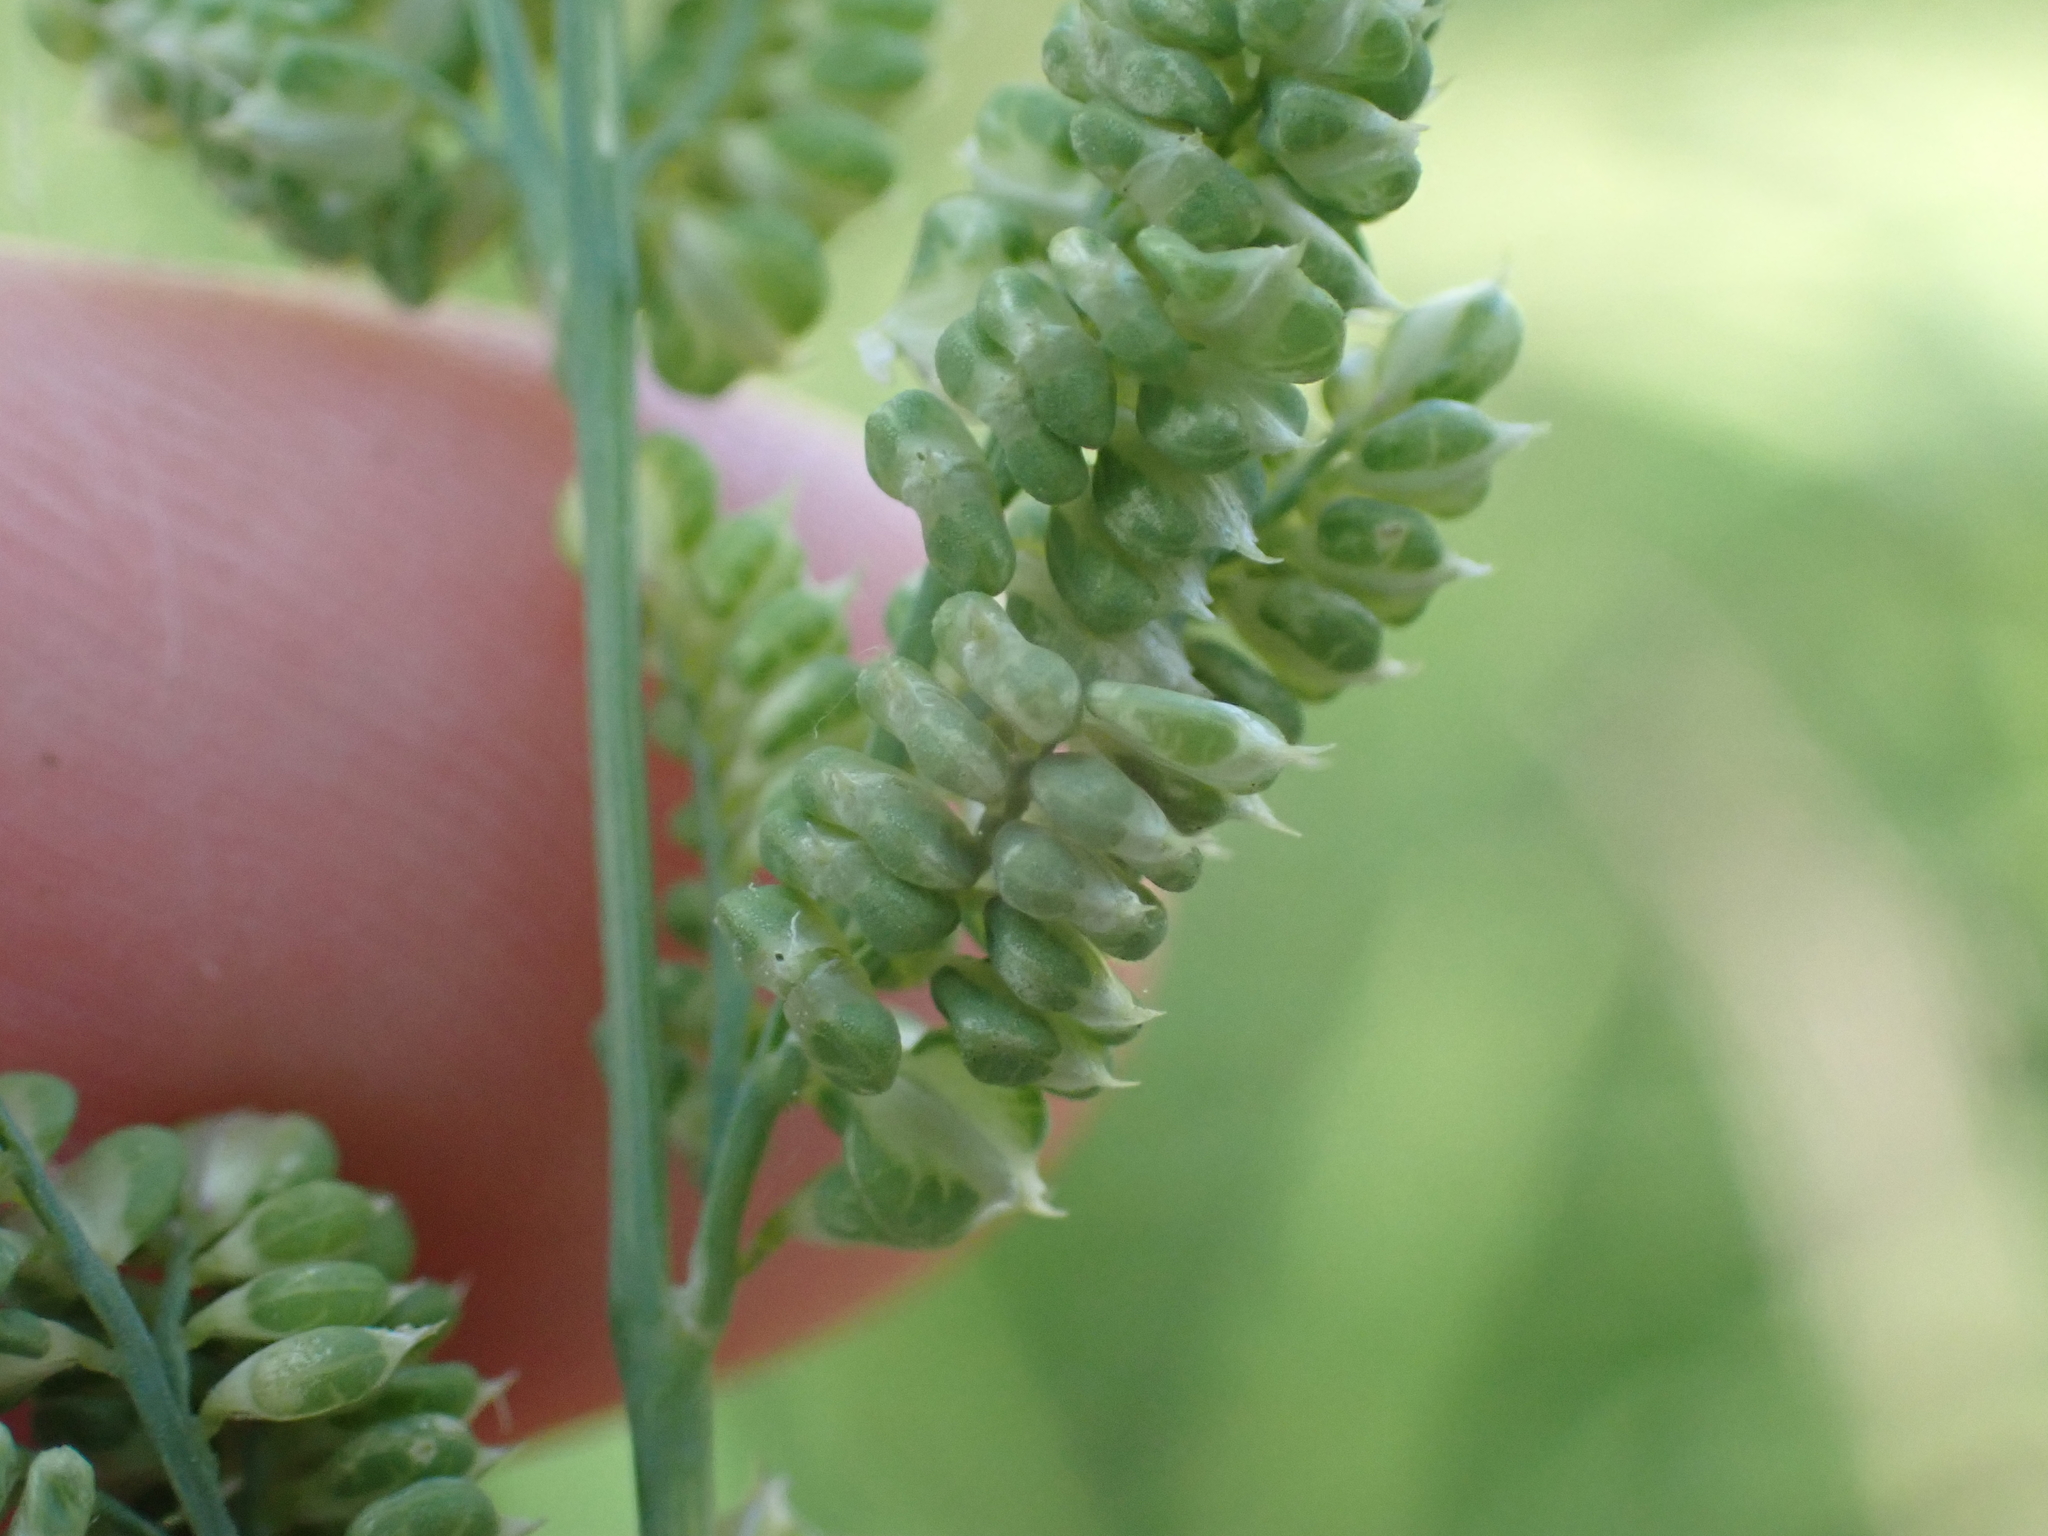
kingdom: Plantae
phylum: Tracheophyta
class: Liliopsida
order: Poales
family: Poaceae
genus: Beckmannia
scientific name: Beckmannia syzigachne
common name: American slough-grass
